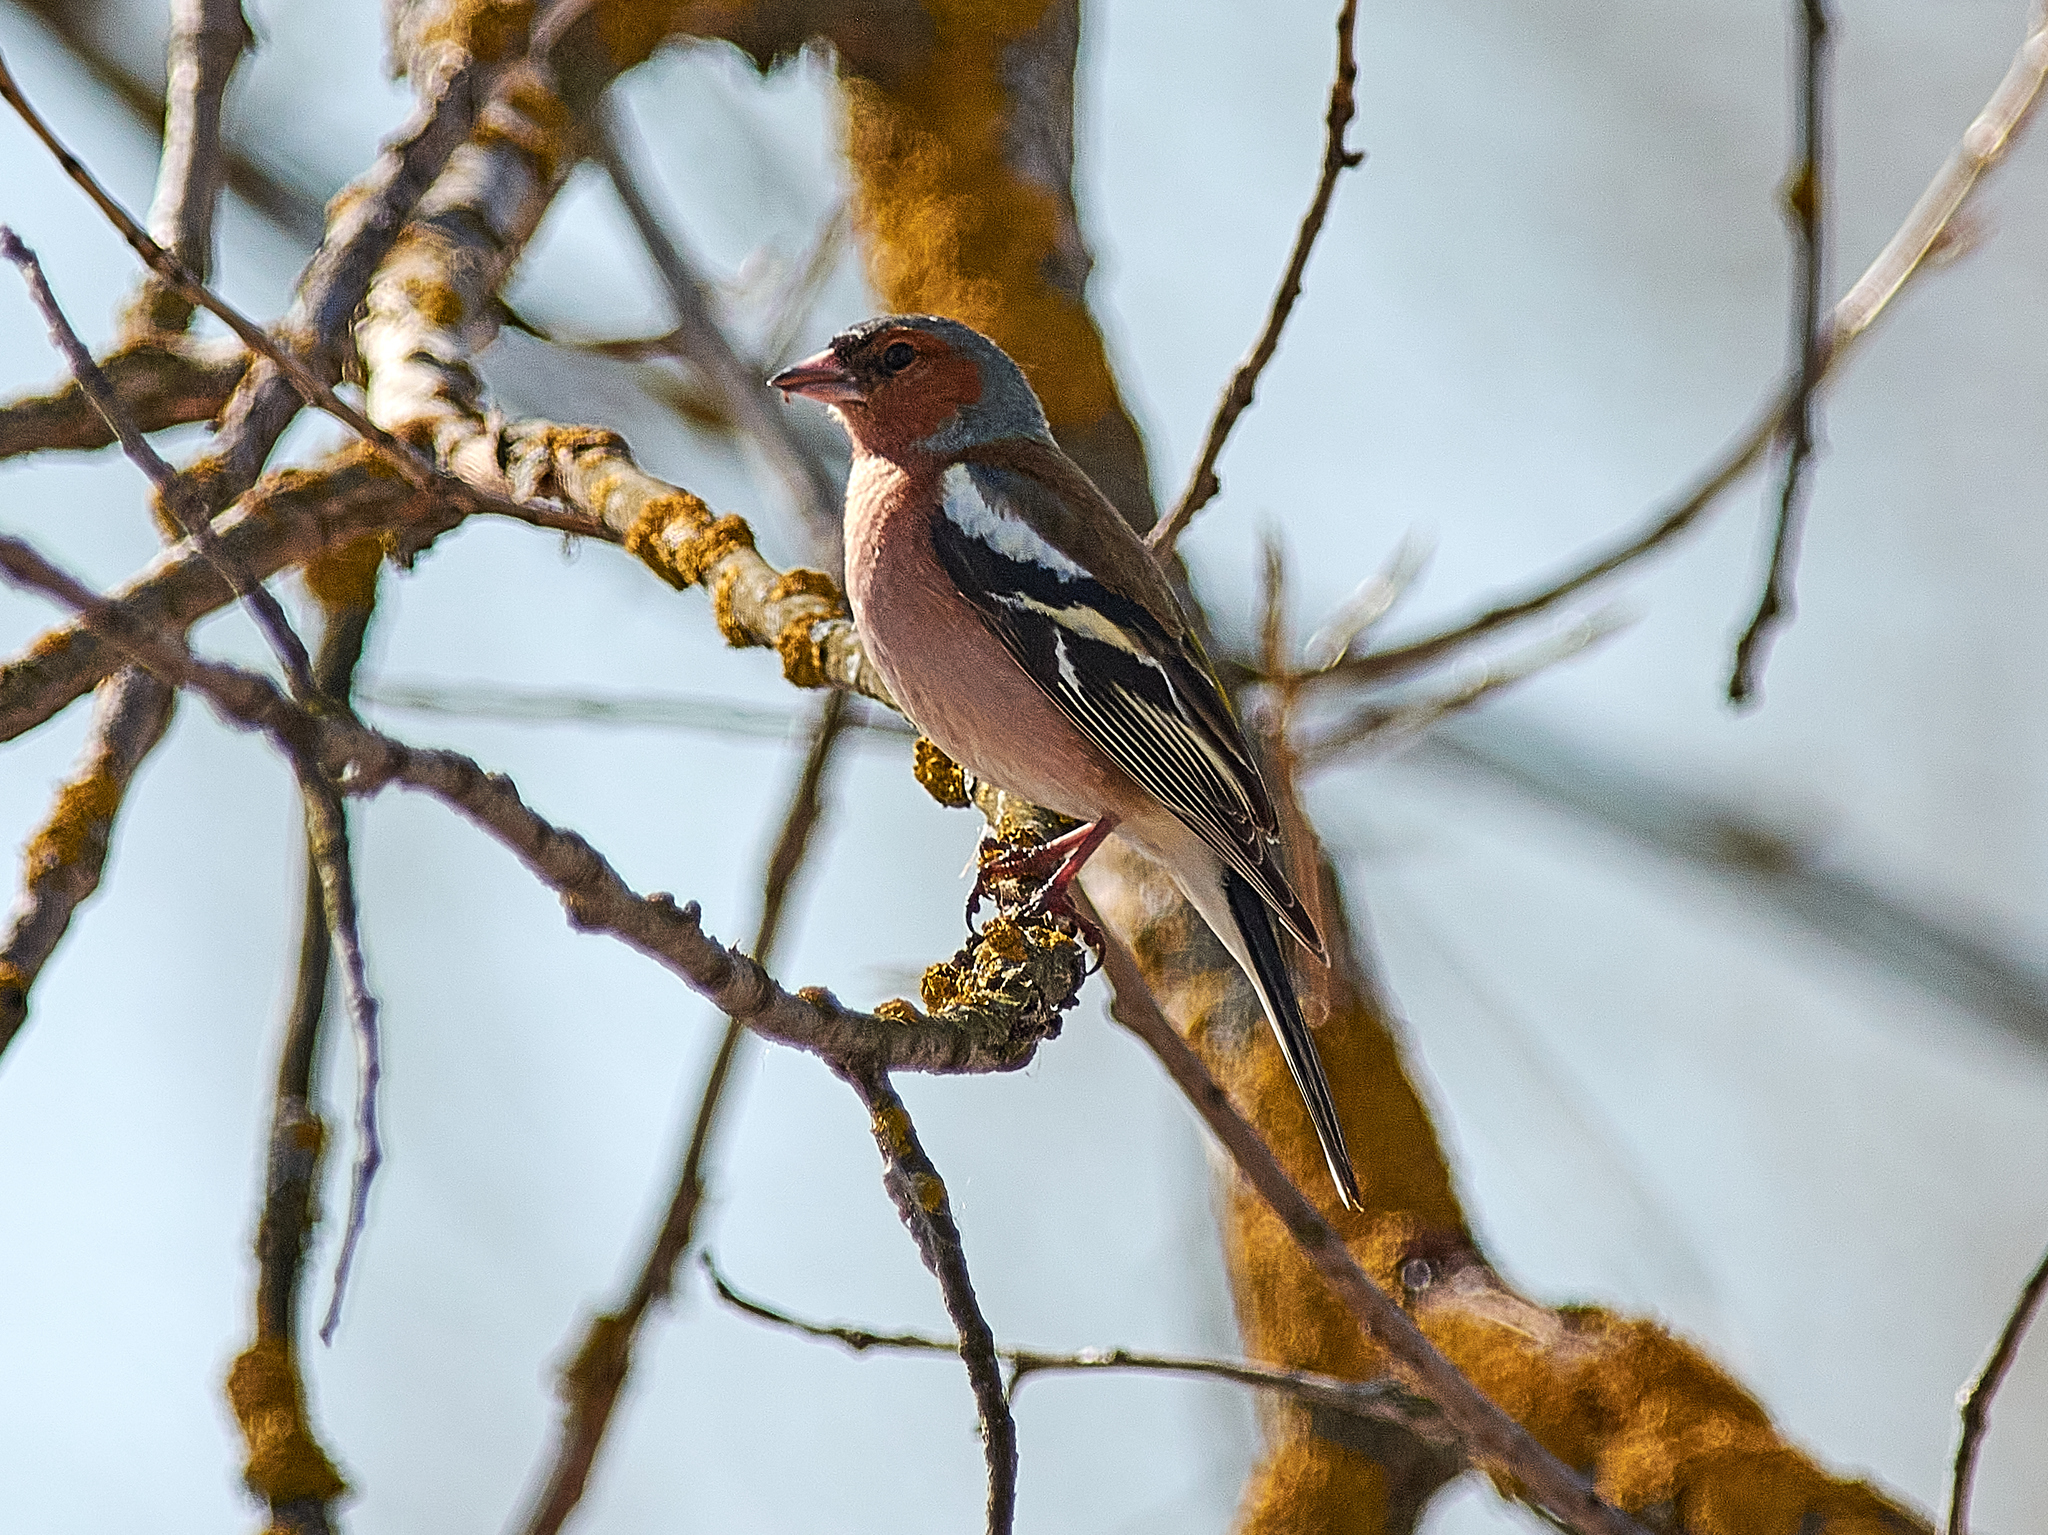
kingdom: Animalia
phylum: Chordata
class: Aves
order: Passeriformes
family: Fringillidae
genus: Fringilla
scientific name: Fringilla coelebs
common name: Common chaffinch
